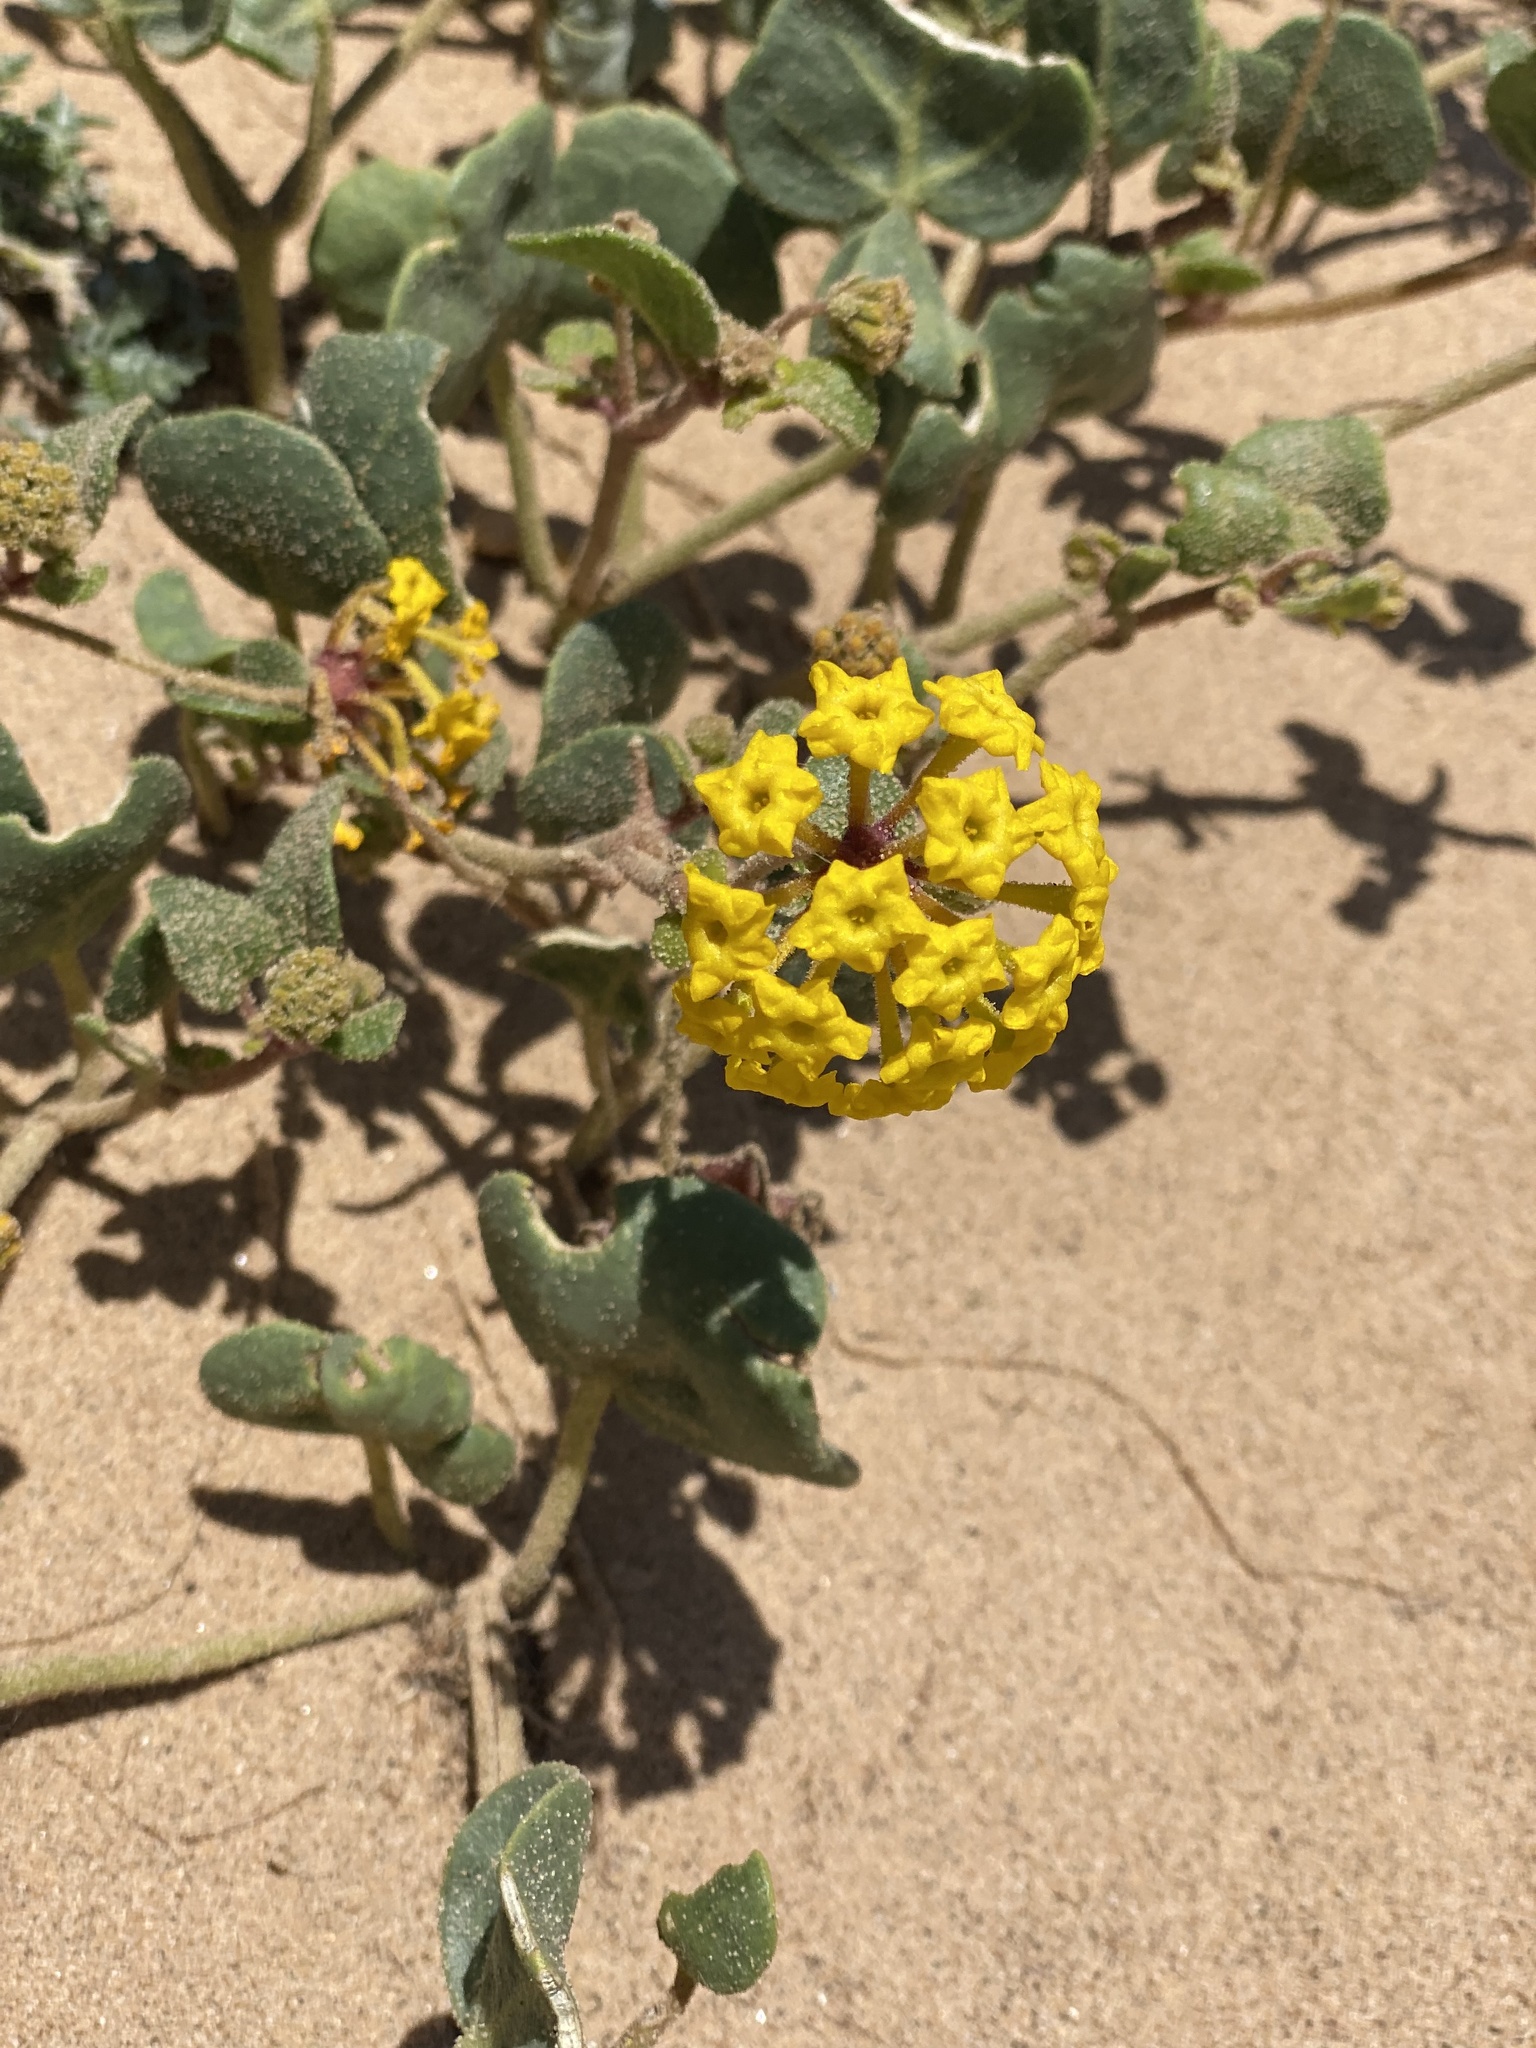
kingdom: Plantae
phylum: Tracheophyta
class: Magnoliopsida
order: Caryophyllales
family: Nyctaginaceae
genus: Abronia
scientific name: Abronia latifolia
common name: Yellow sand-verbena
